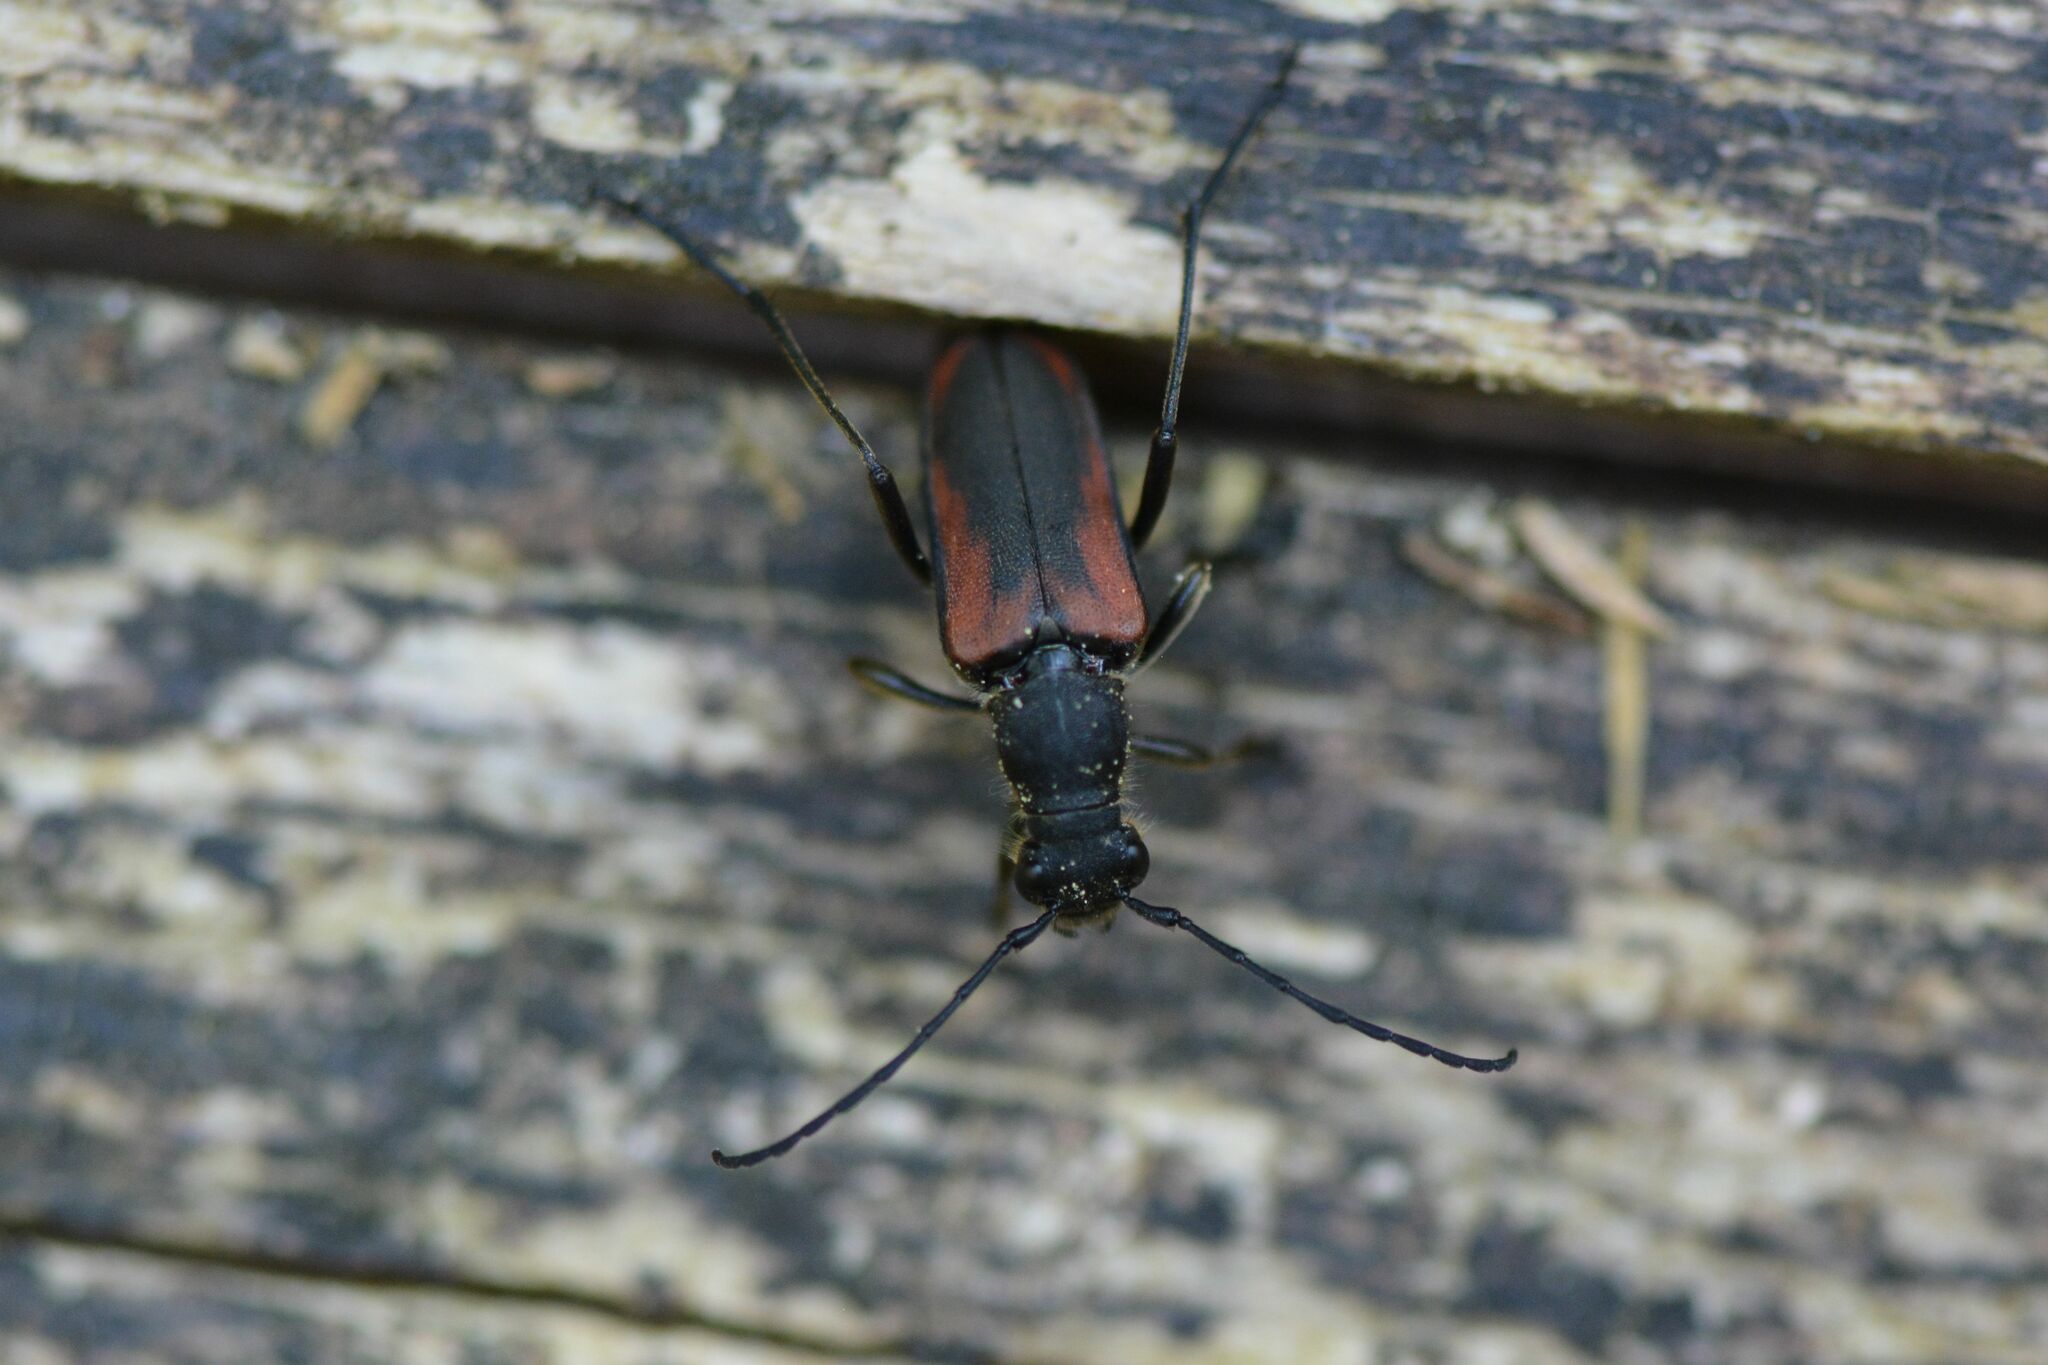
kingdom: Animalia
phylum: Arthropoda
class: Insecta
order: Coleoptera
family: Cerambycidae
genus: Anastrangalia
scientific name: Anastrangalia dubia
